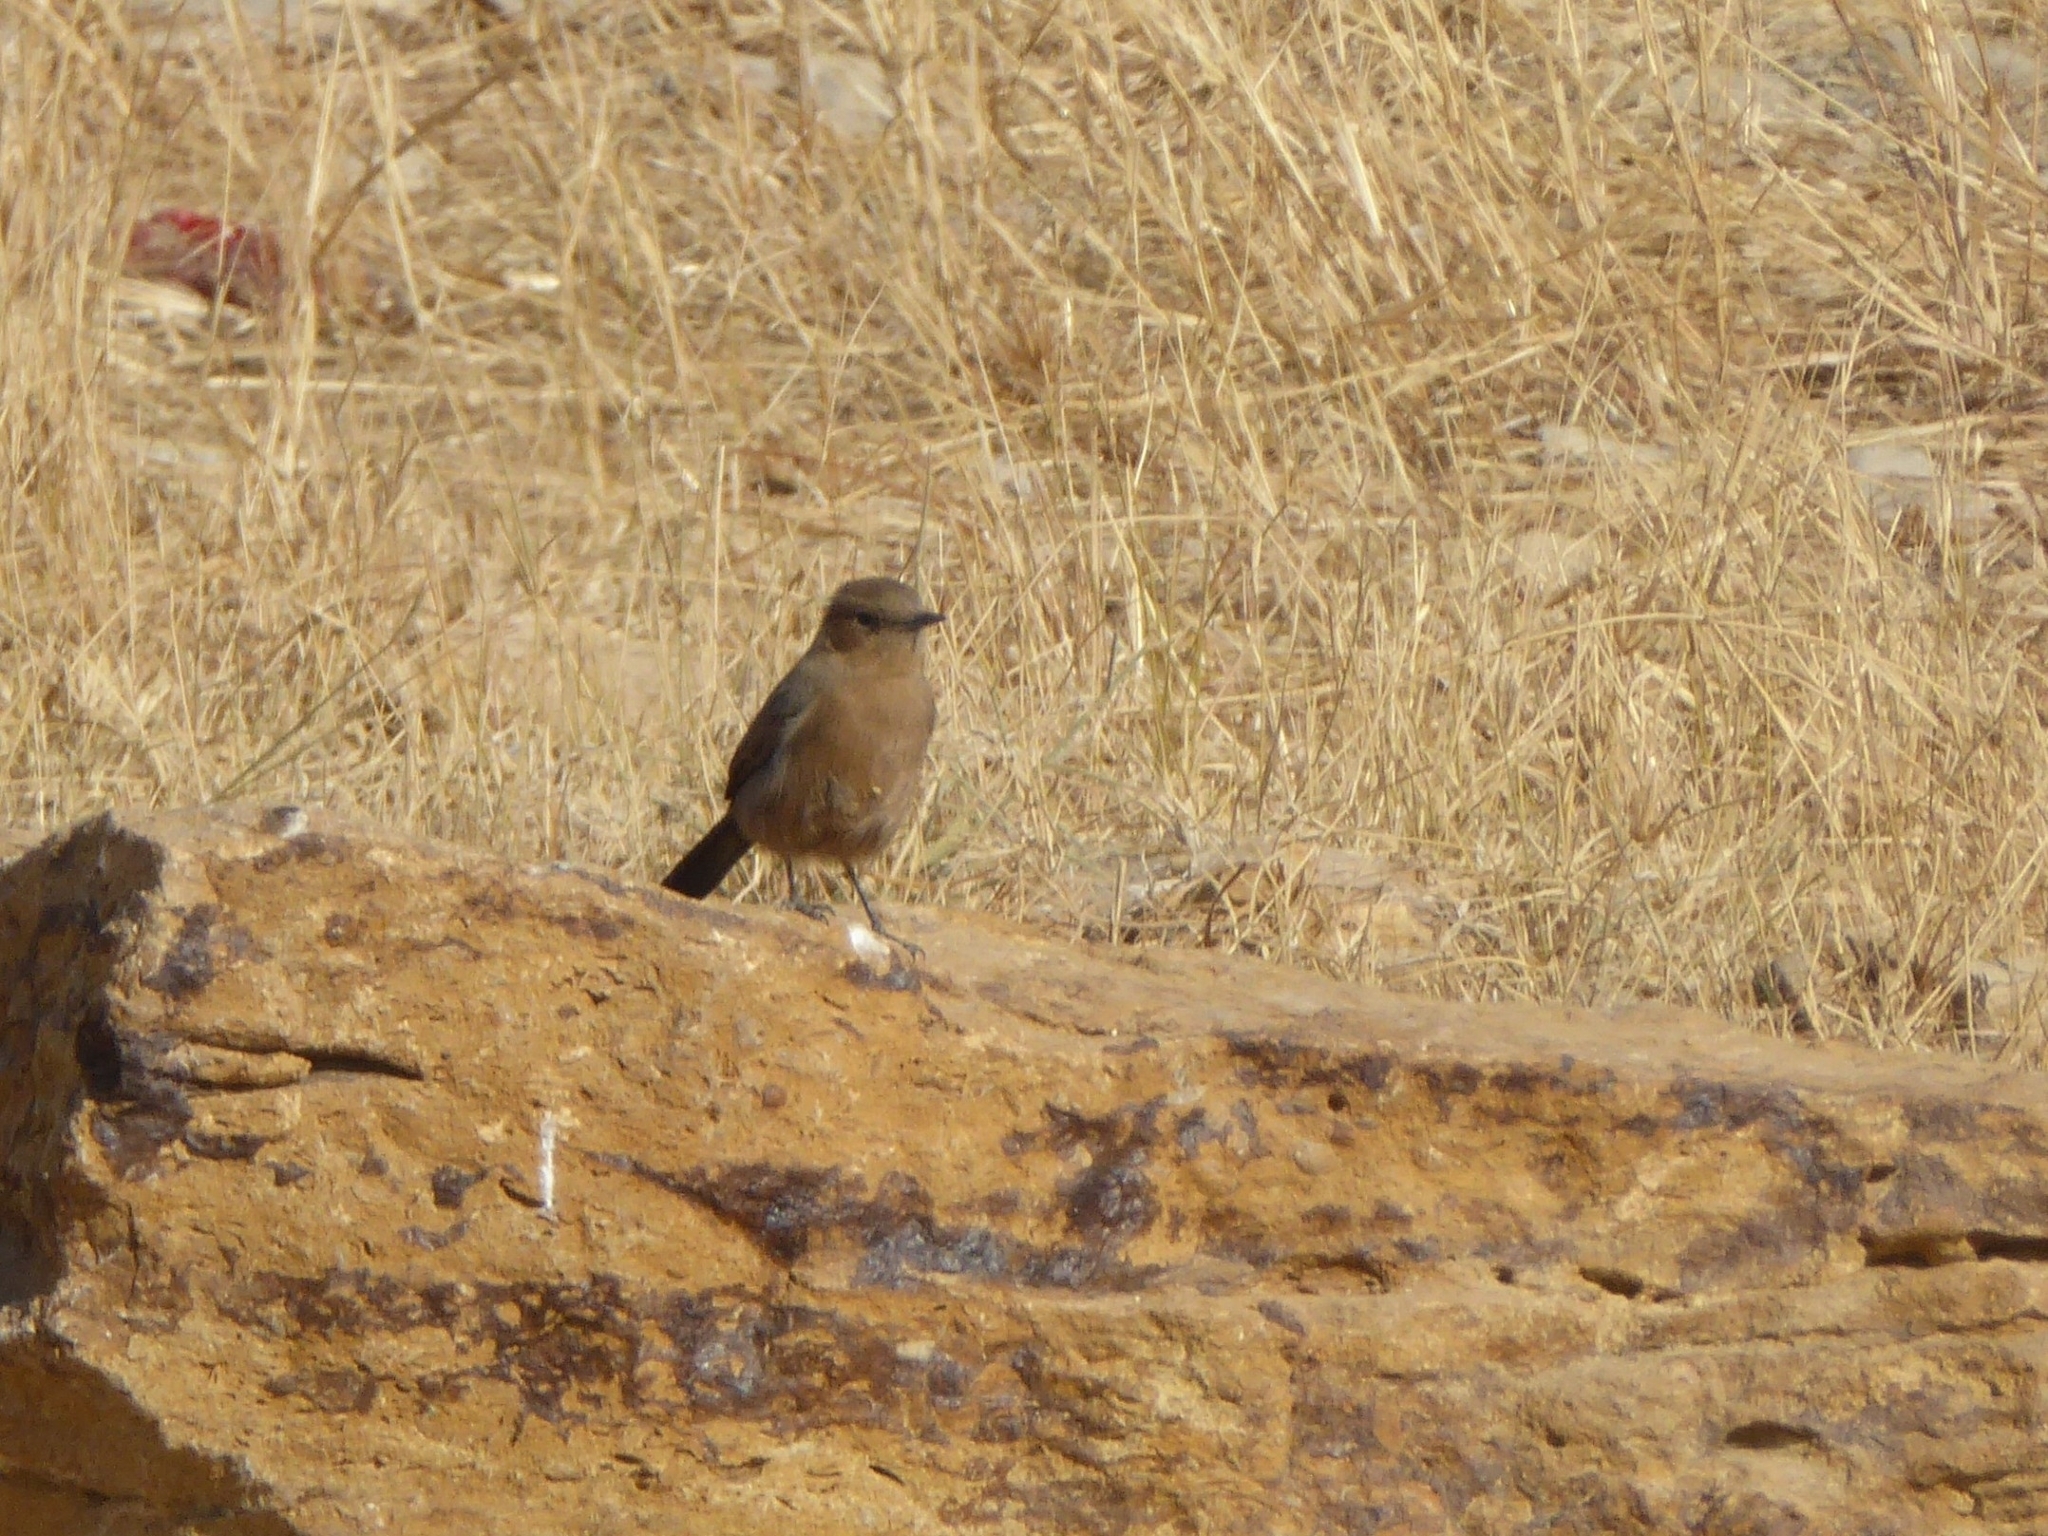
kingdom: Animalia
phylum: Chordata
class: Aves
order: Passeriformes
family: Muscicapidae
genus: Oenanthe
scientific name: Oenanthe fusca
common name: Brown rock chat
